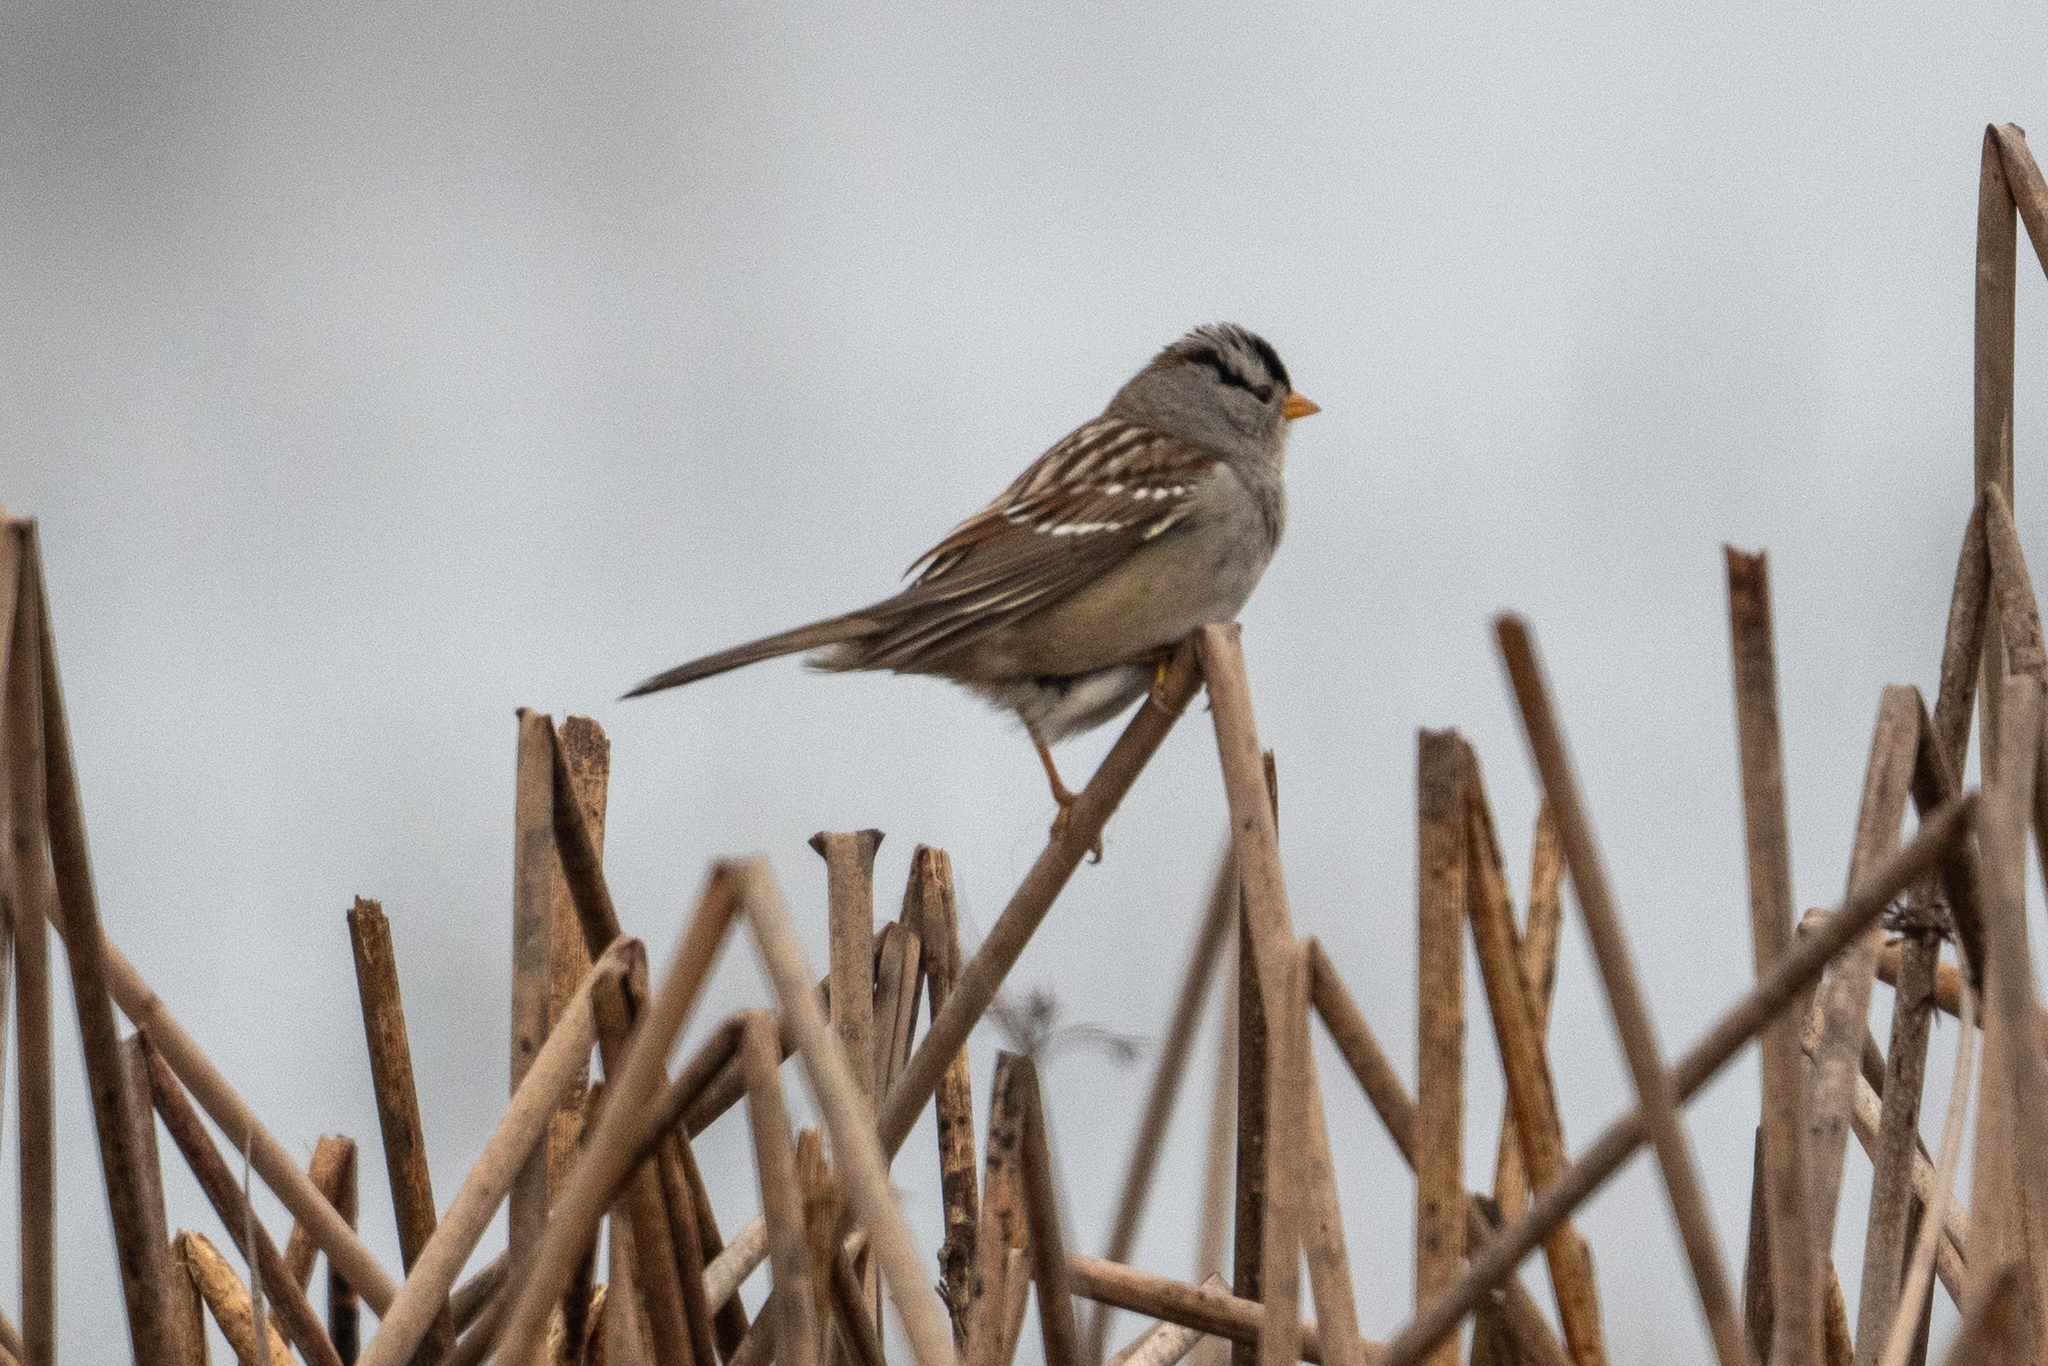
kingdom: Animalia
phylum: Chordata
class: Aves
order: Passeriformes
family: Passerellidae
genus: Zonotrichia
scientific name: Zonotrichia leucophrys
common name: White-crowned sparrow
